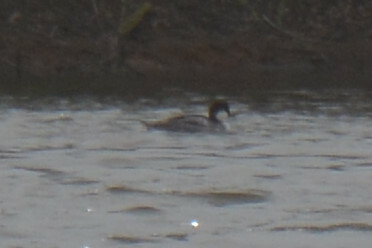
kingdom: Animalia
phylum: Chordata
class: Aves
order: Anseriformes
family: Anatidae
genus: Mergellus
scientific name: Mergellus albellus
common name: Smew
